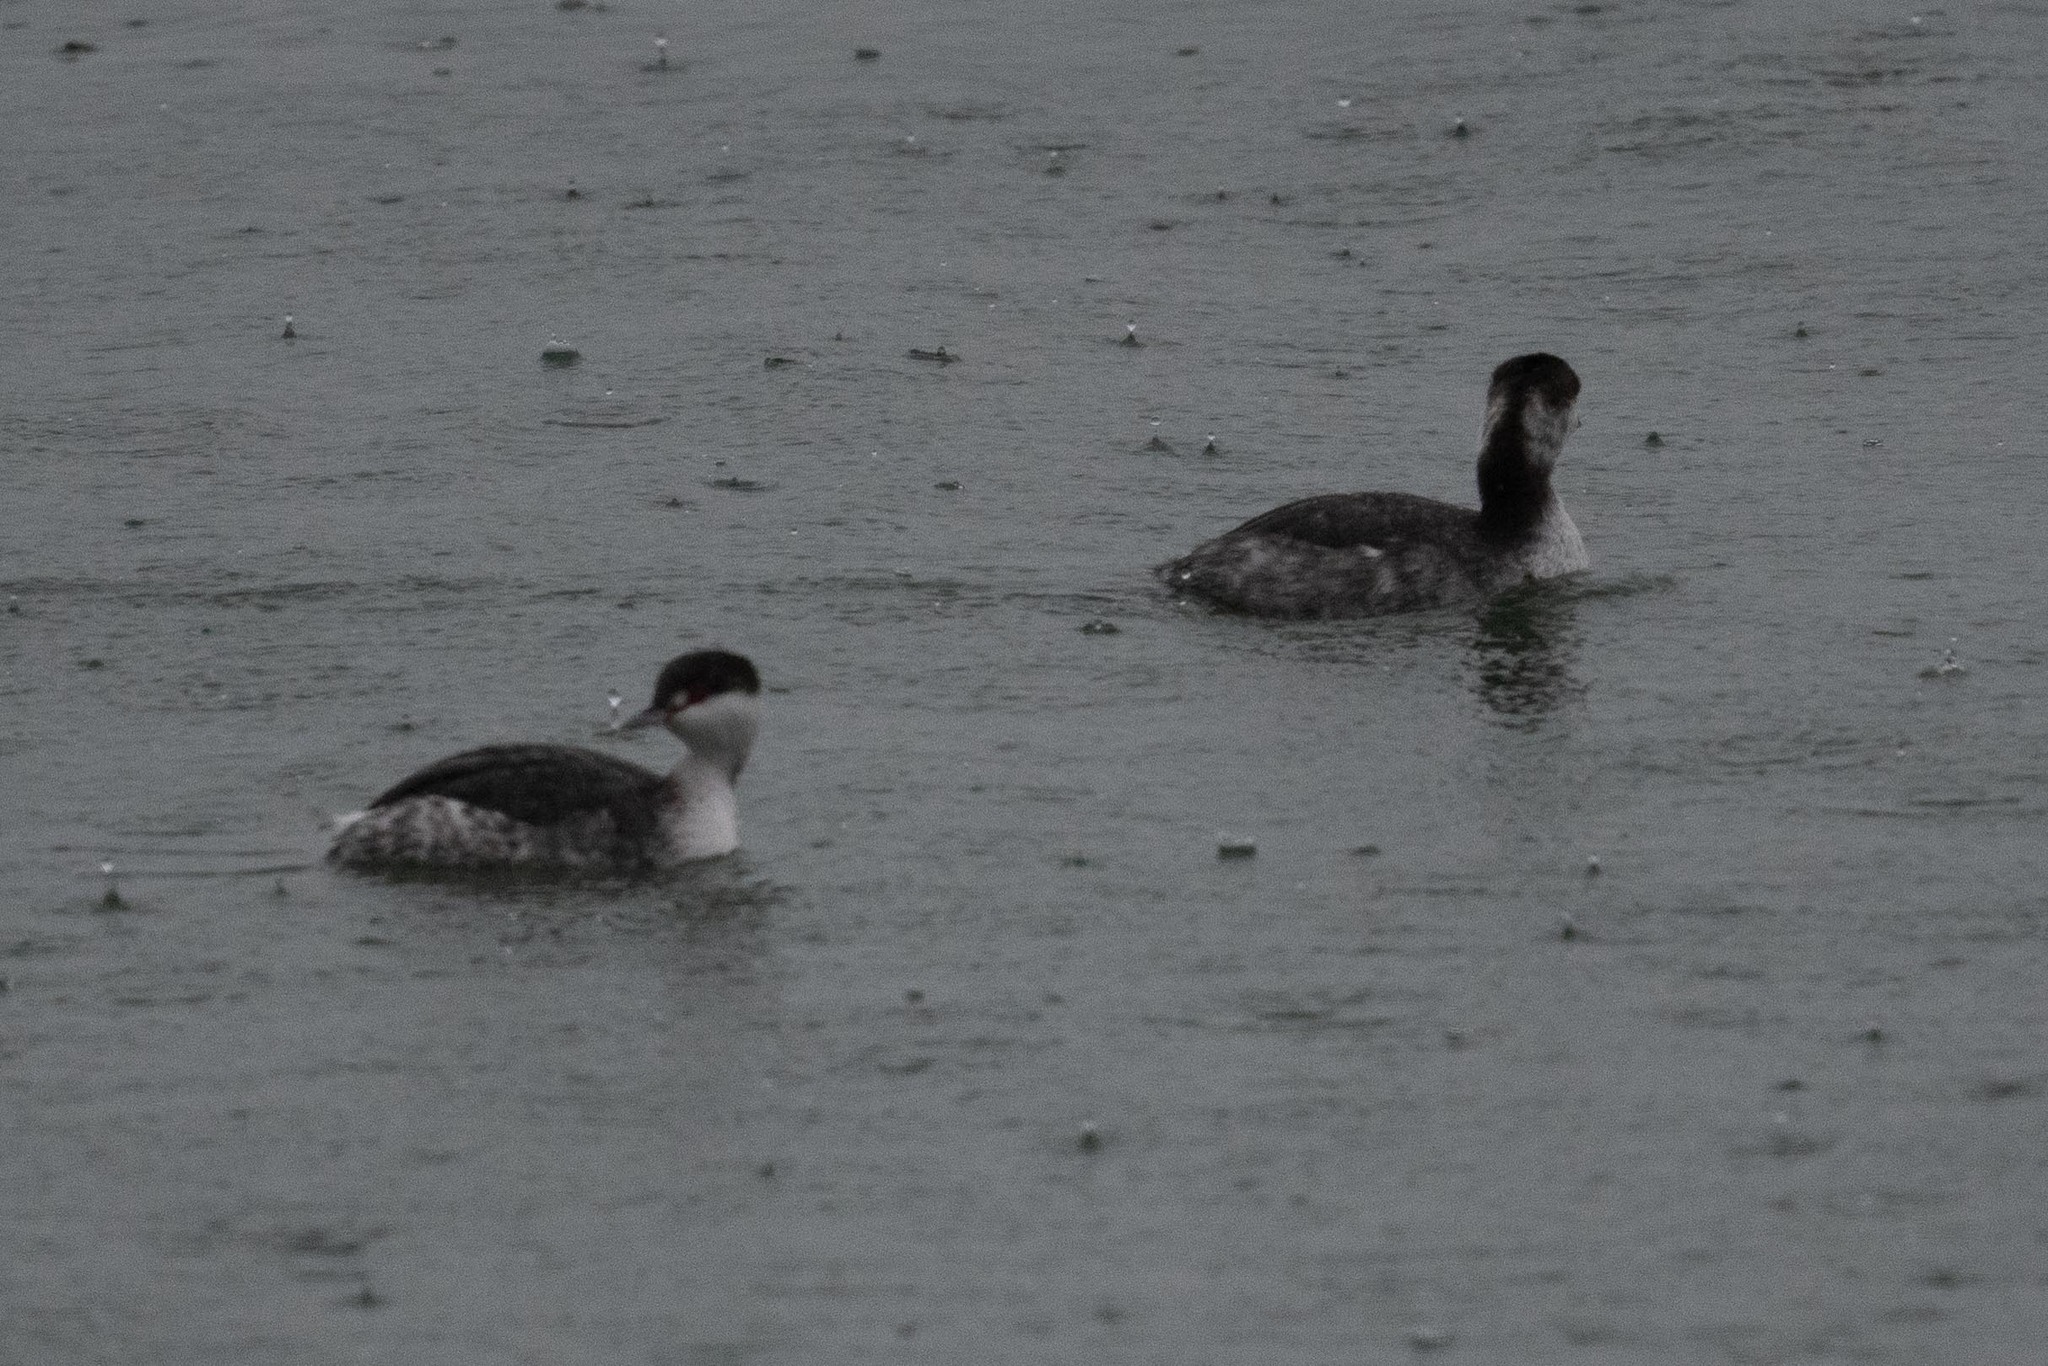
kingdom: Animalia
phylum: Chordata
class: Aves
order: Podicipediformes
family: Podicipedidae
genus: Podiceps
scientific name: Podiceps auritus
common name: Horned grebe
